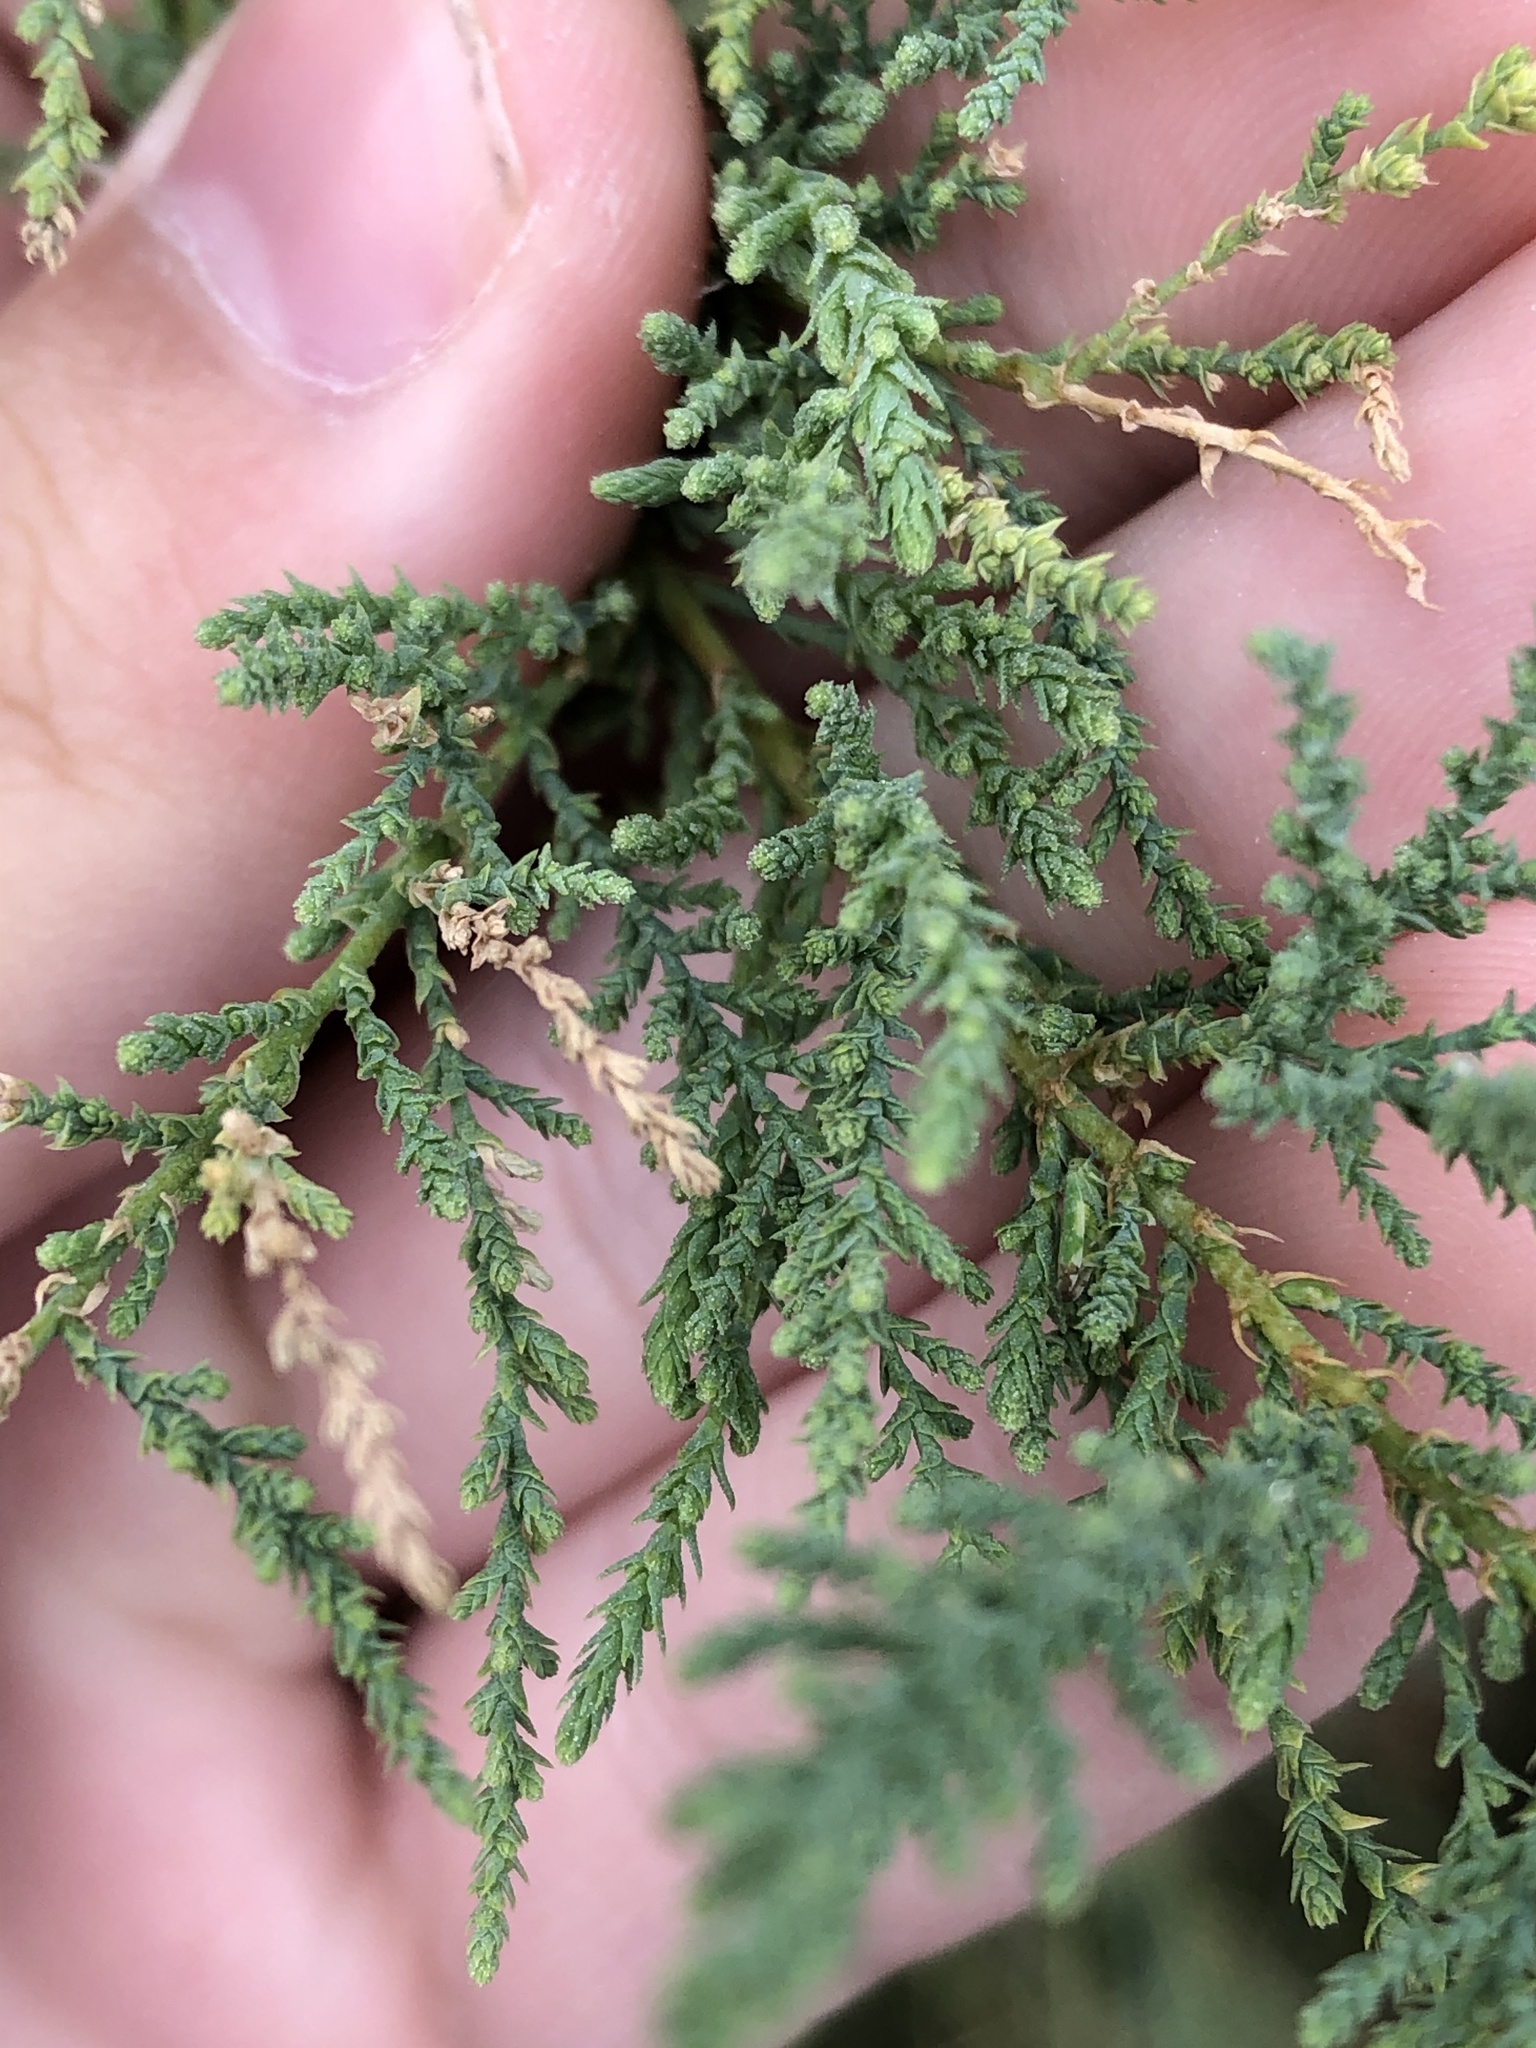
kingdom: Plantae
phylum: Tracheophyta
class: Magnoliopsida
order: Caryophyllales
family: Tamaricaceae
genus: Tamarix
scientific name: Tamarix
